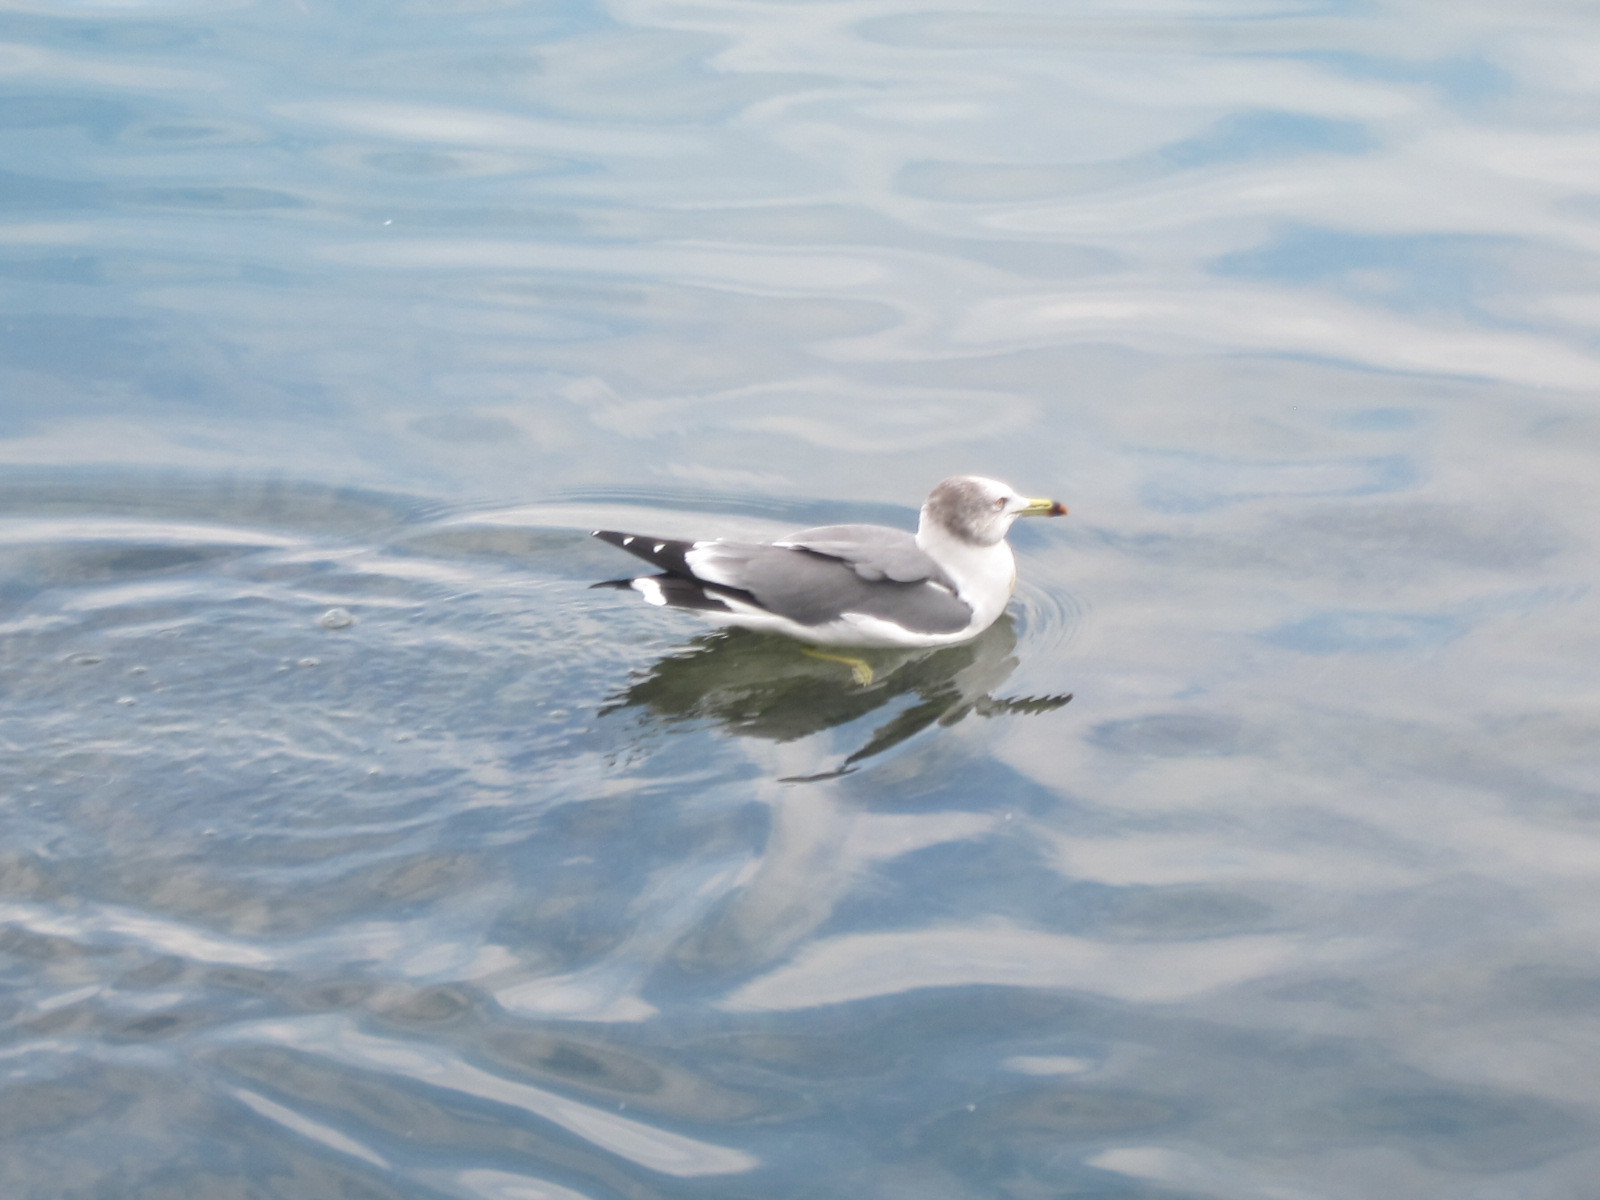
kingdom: Animalia
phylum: Chordata
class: Aves
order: Charadriiformes
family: Laridae
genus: Larus
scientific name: Larus crassirostris
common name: Black-tailed gull
